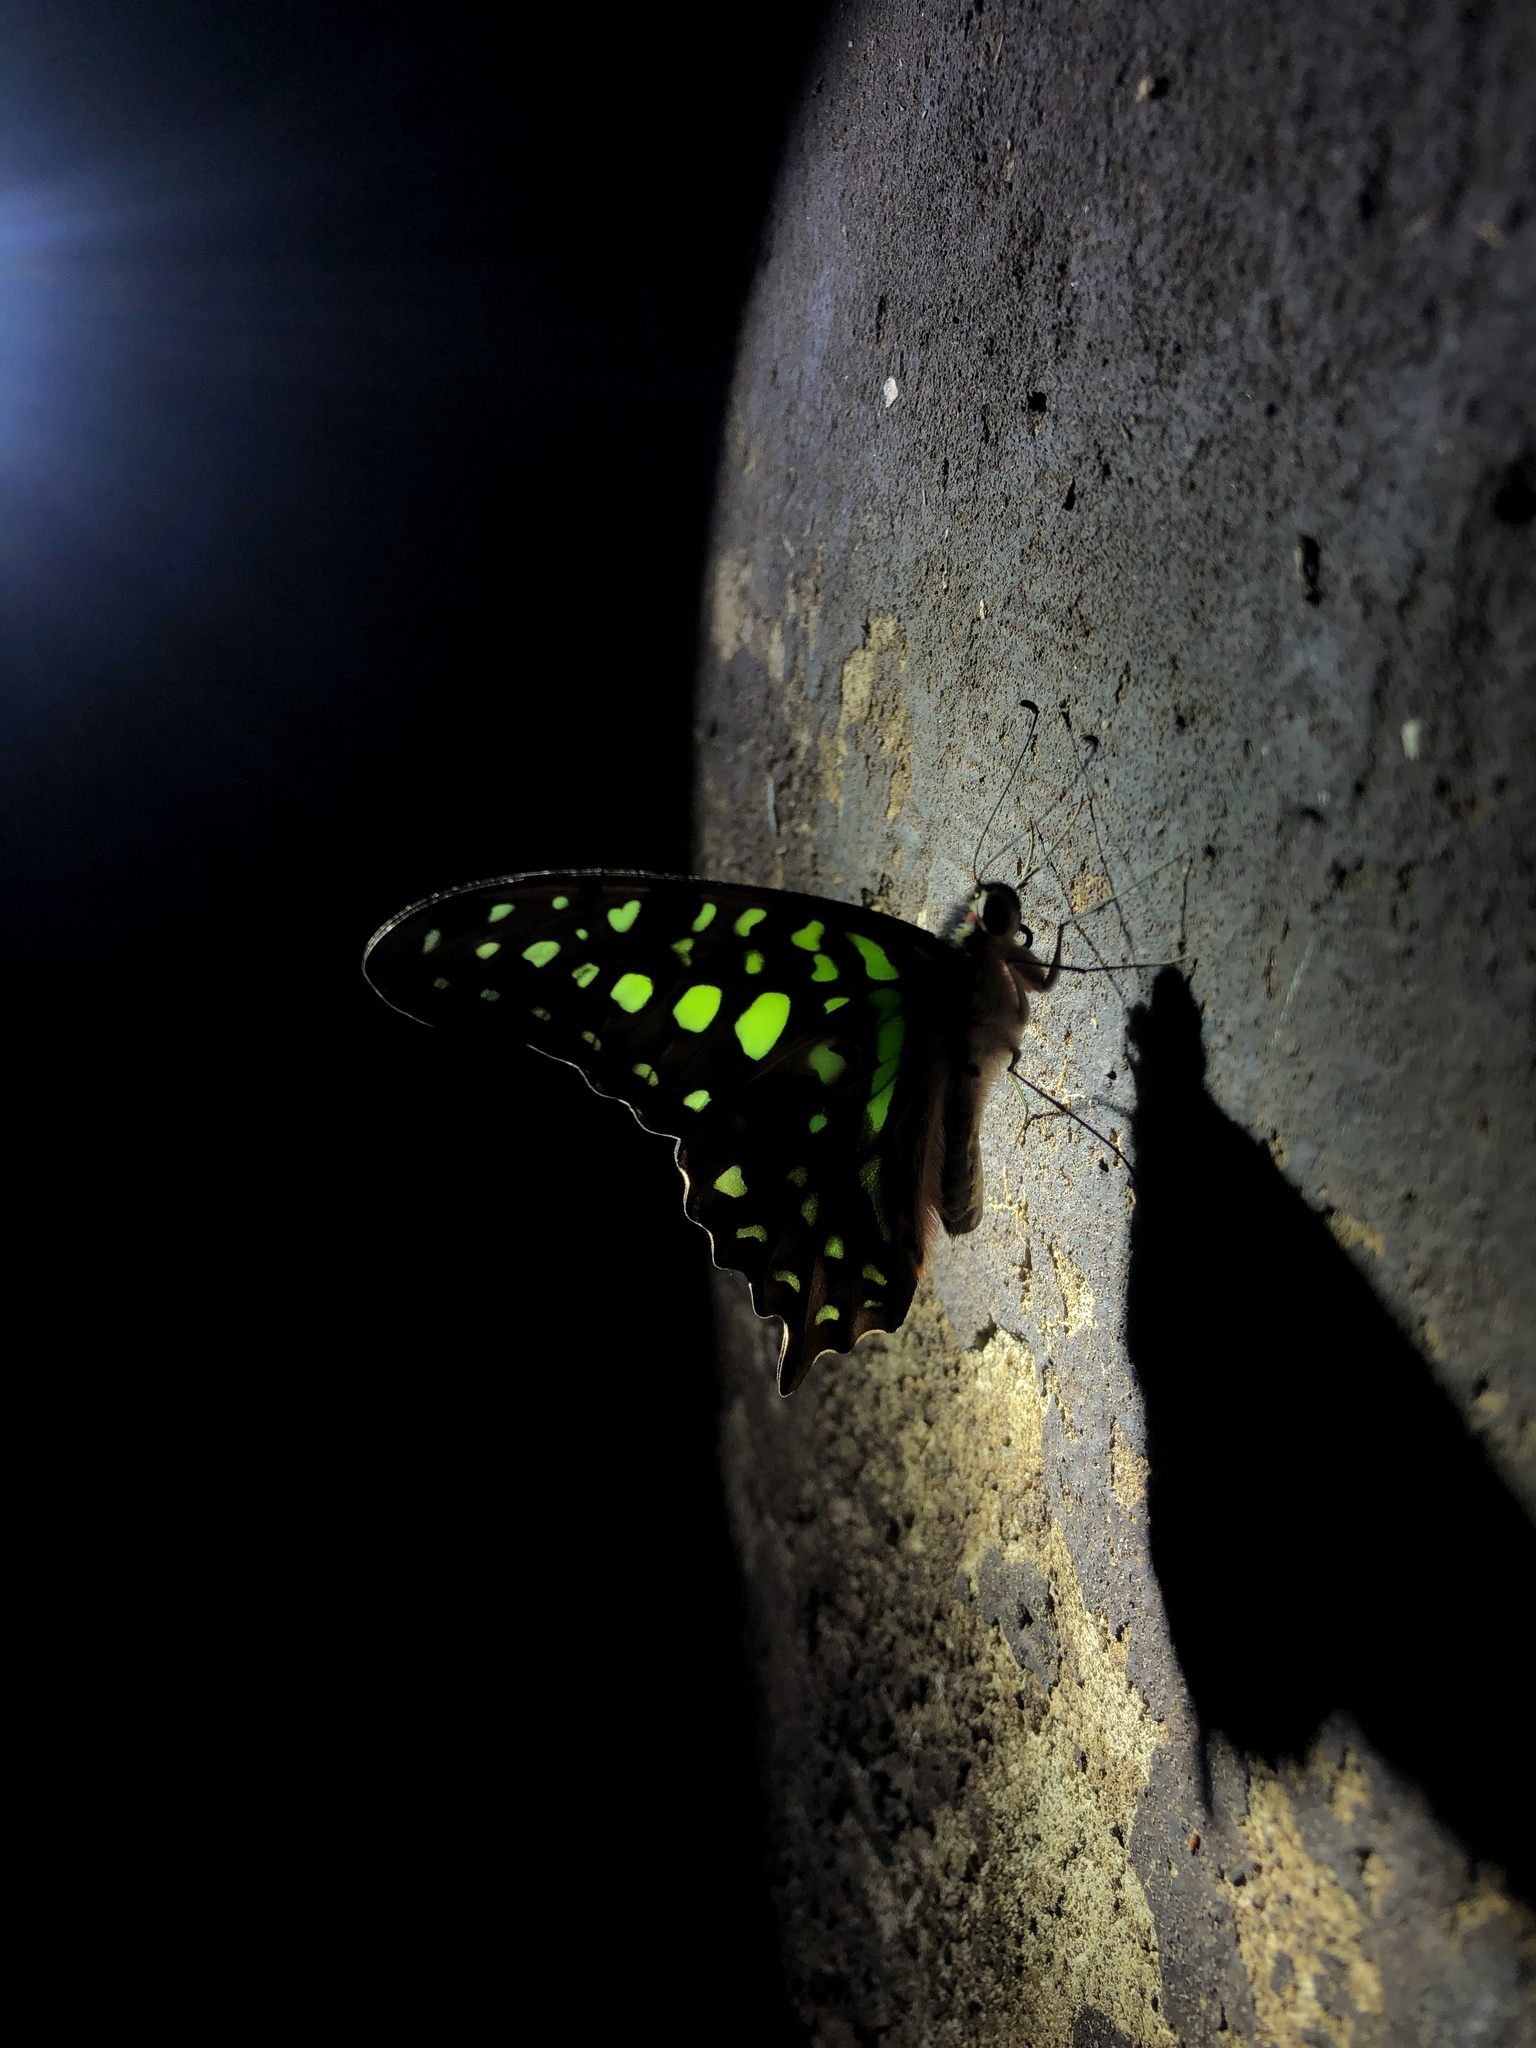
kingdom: Animalia
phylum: Arthropoda
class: Insecta
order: Lepidoptera
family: Papilionidae
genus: Graphium
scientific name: Graphium agamemnon
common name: Tailed jay
